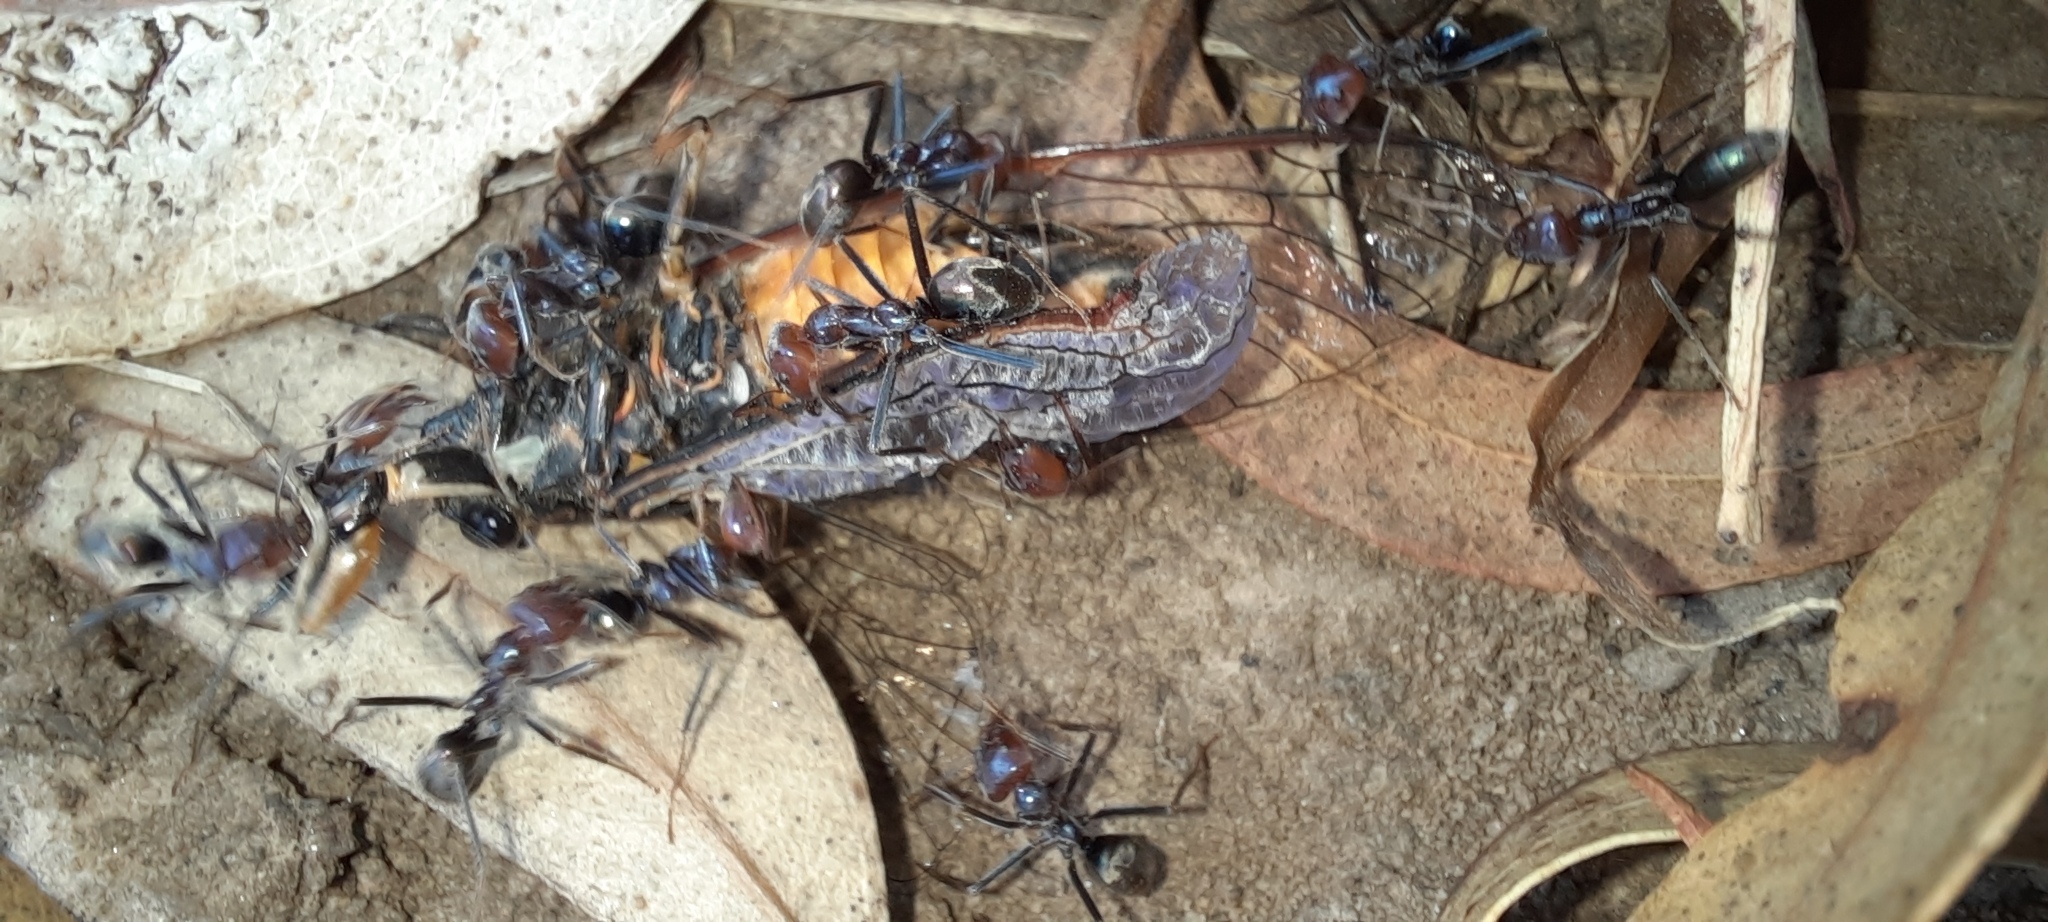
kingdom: Animalia
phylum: Arthropoda
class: Insecta
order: Hemiptera
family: Cicadidae
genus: Yoyetta
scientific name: Yoyetta robertsonae
